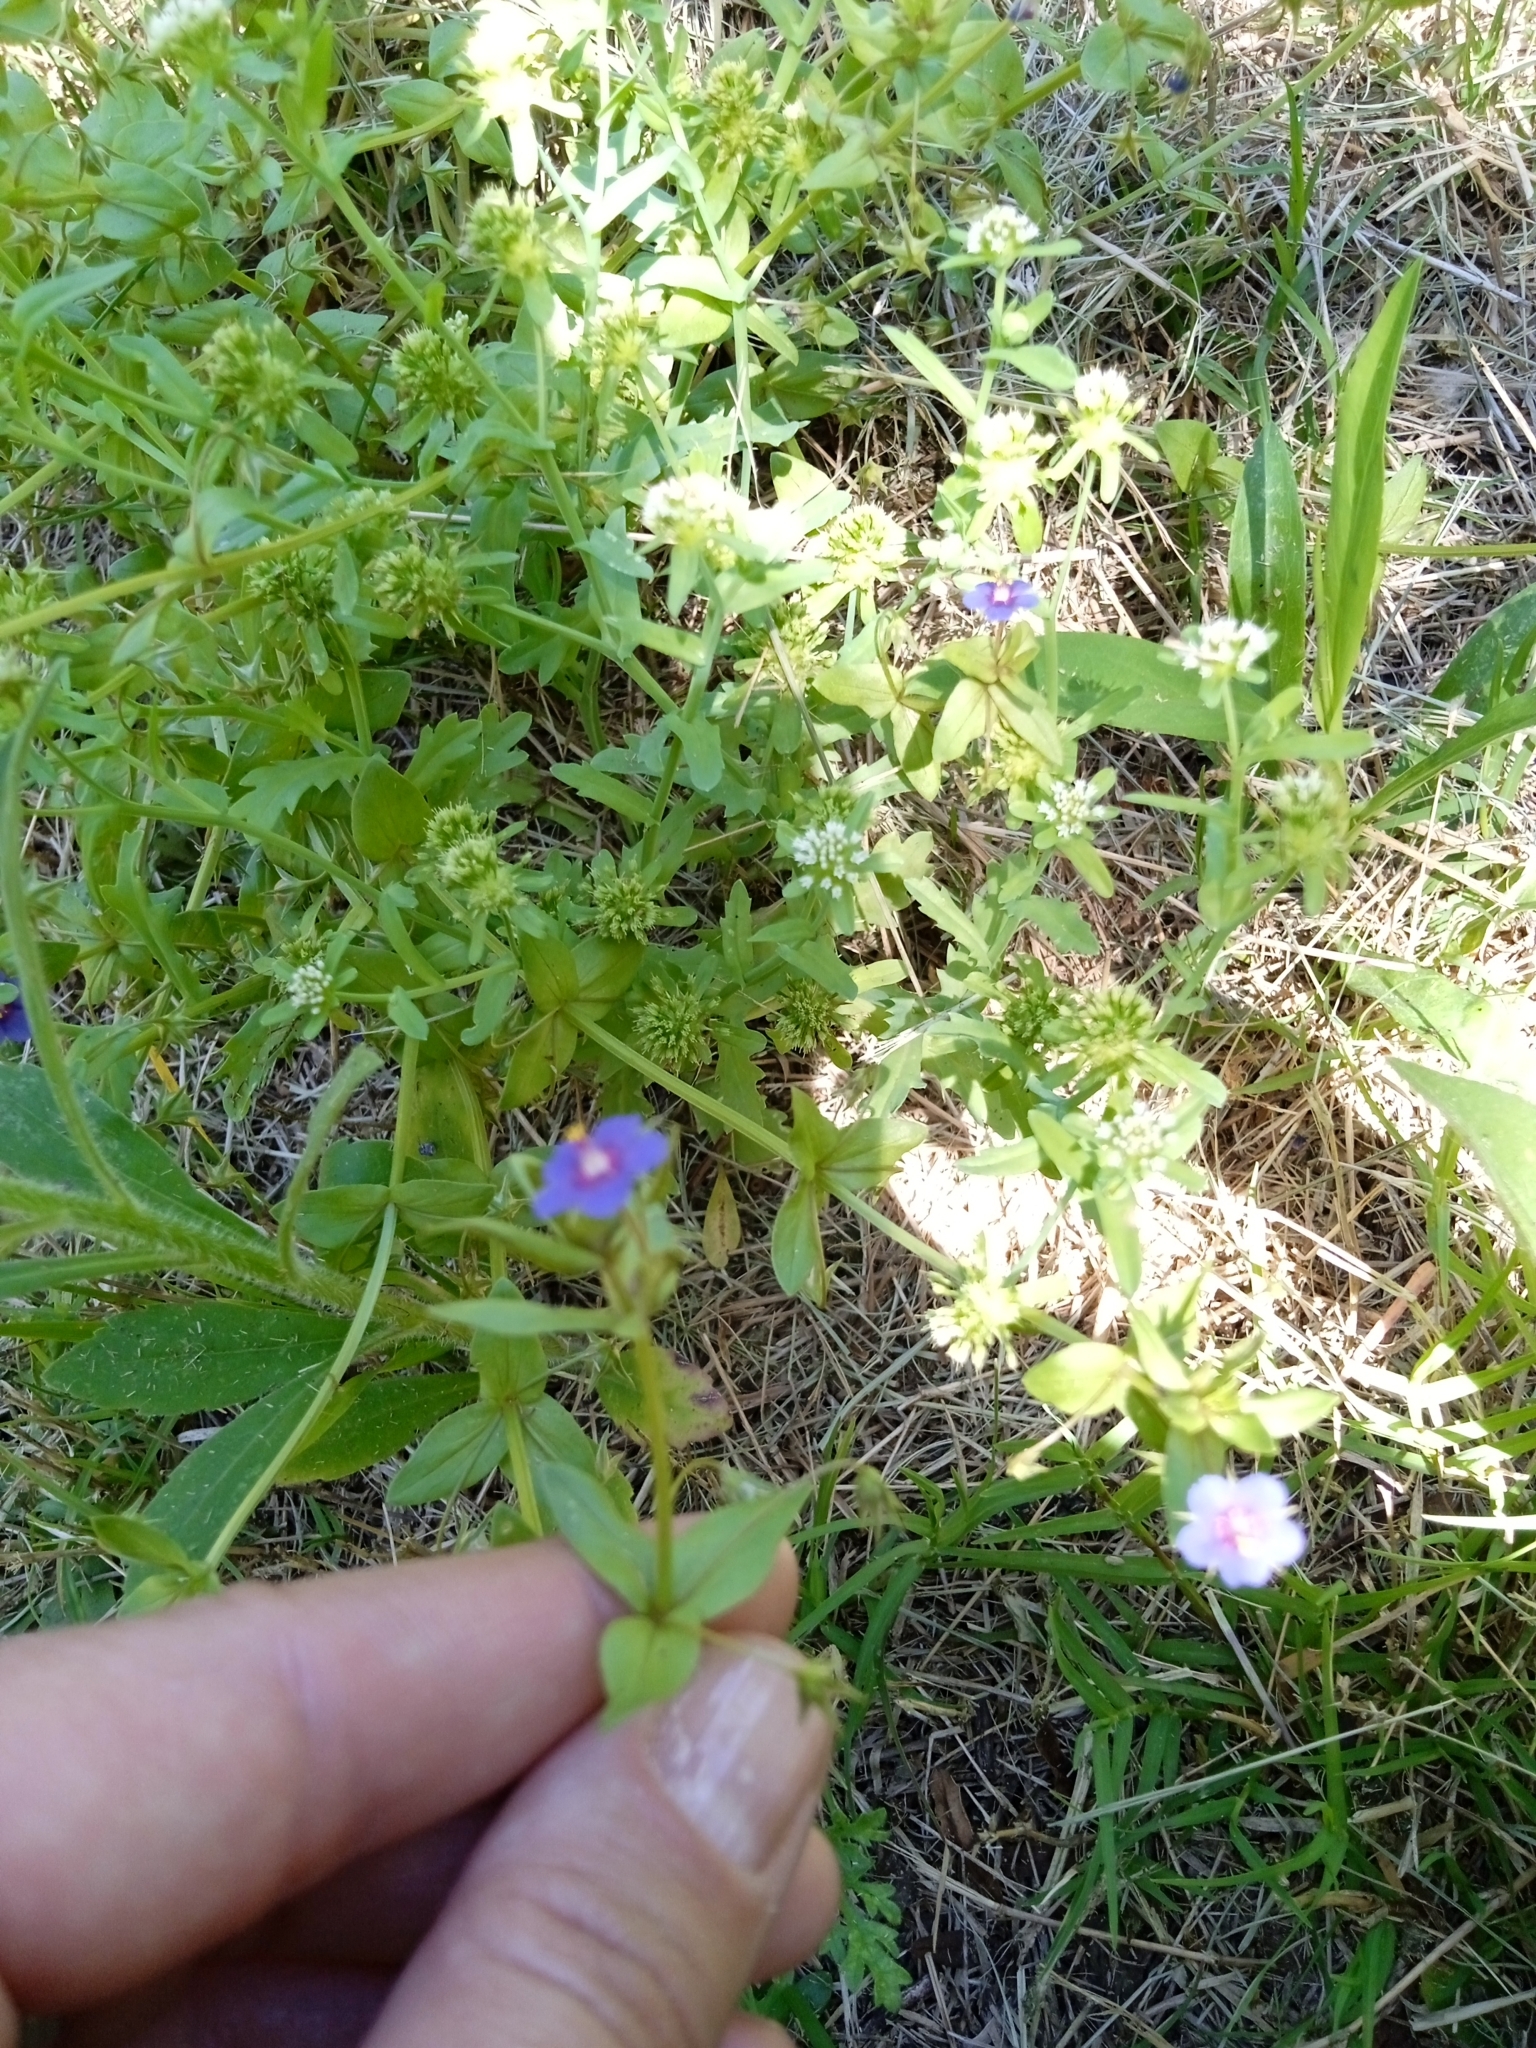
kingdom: Plantae
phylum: Tracheophyta
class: Magnoliopsida
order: Ericales
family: Primulaceae
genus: Lysimachia
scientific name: Lysimachia arvensis
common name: Scarlet pimpernel
